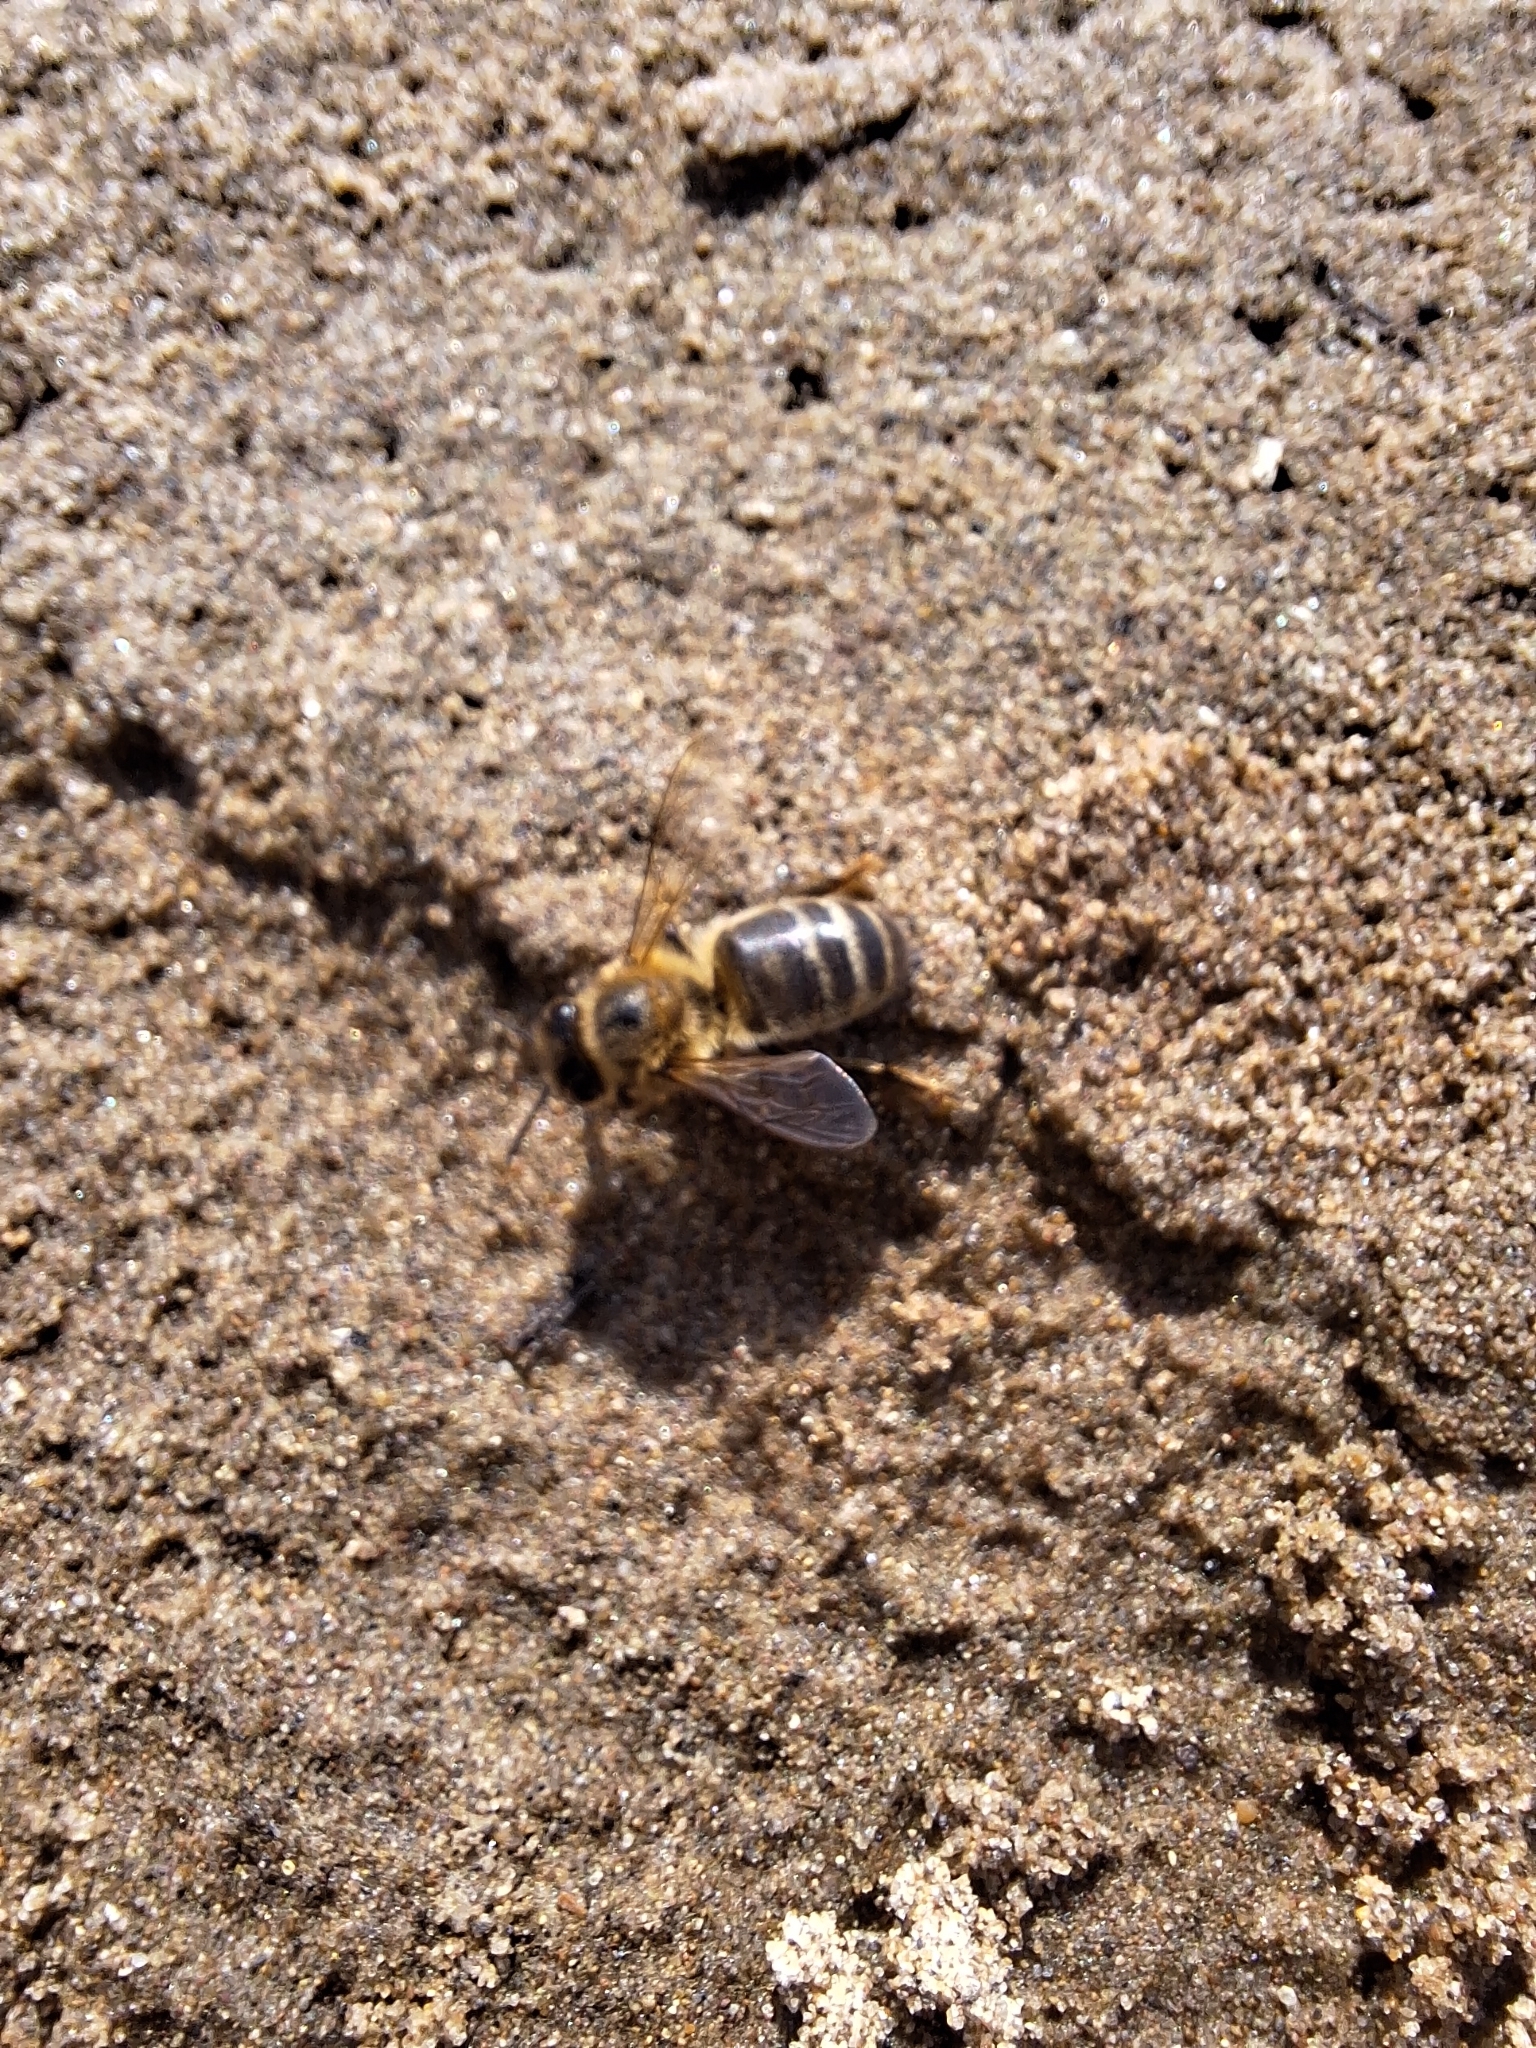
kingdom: Animalia
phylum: Arthropoda
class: Insecta
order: Hymenoptera
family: Apidae
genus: Apis
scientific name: Apis mellifera
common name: Honey bee
